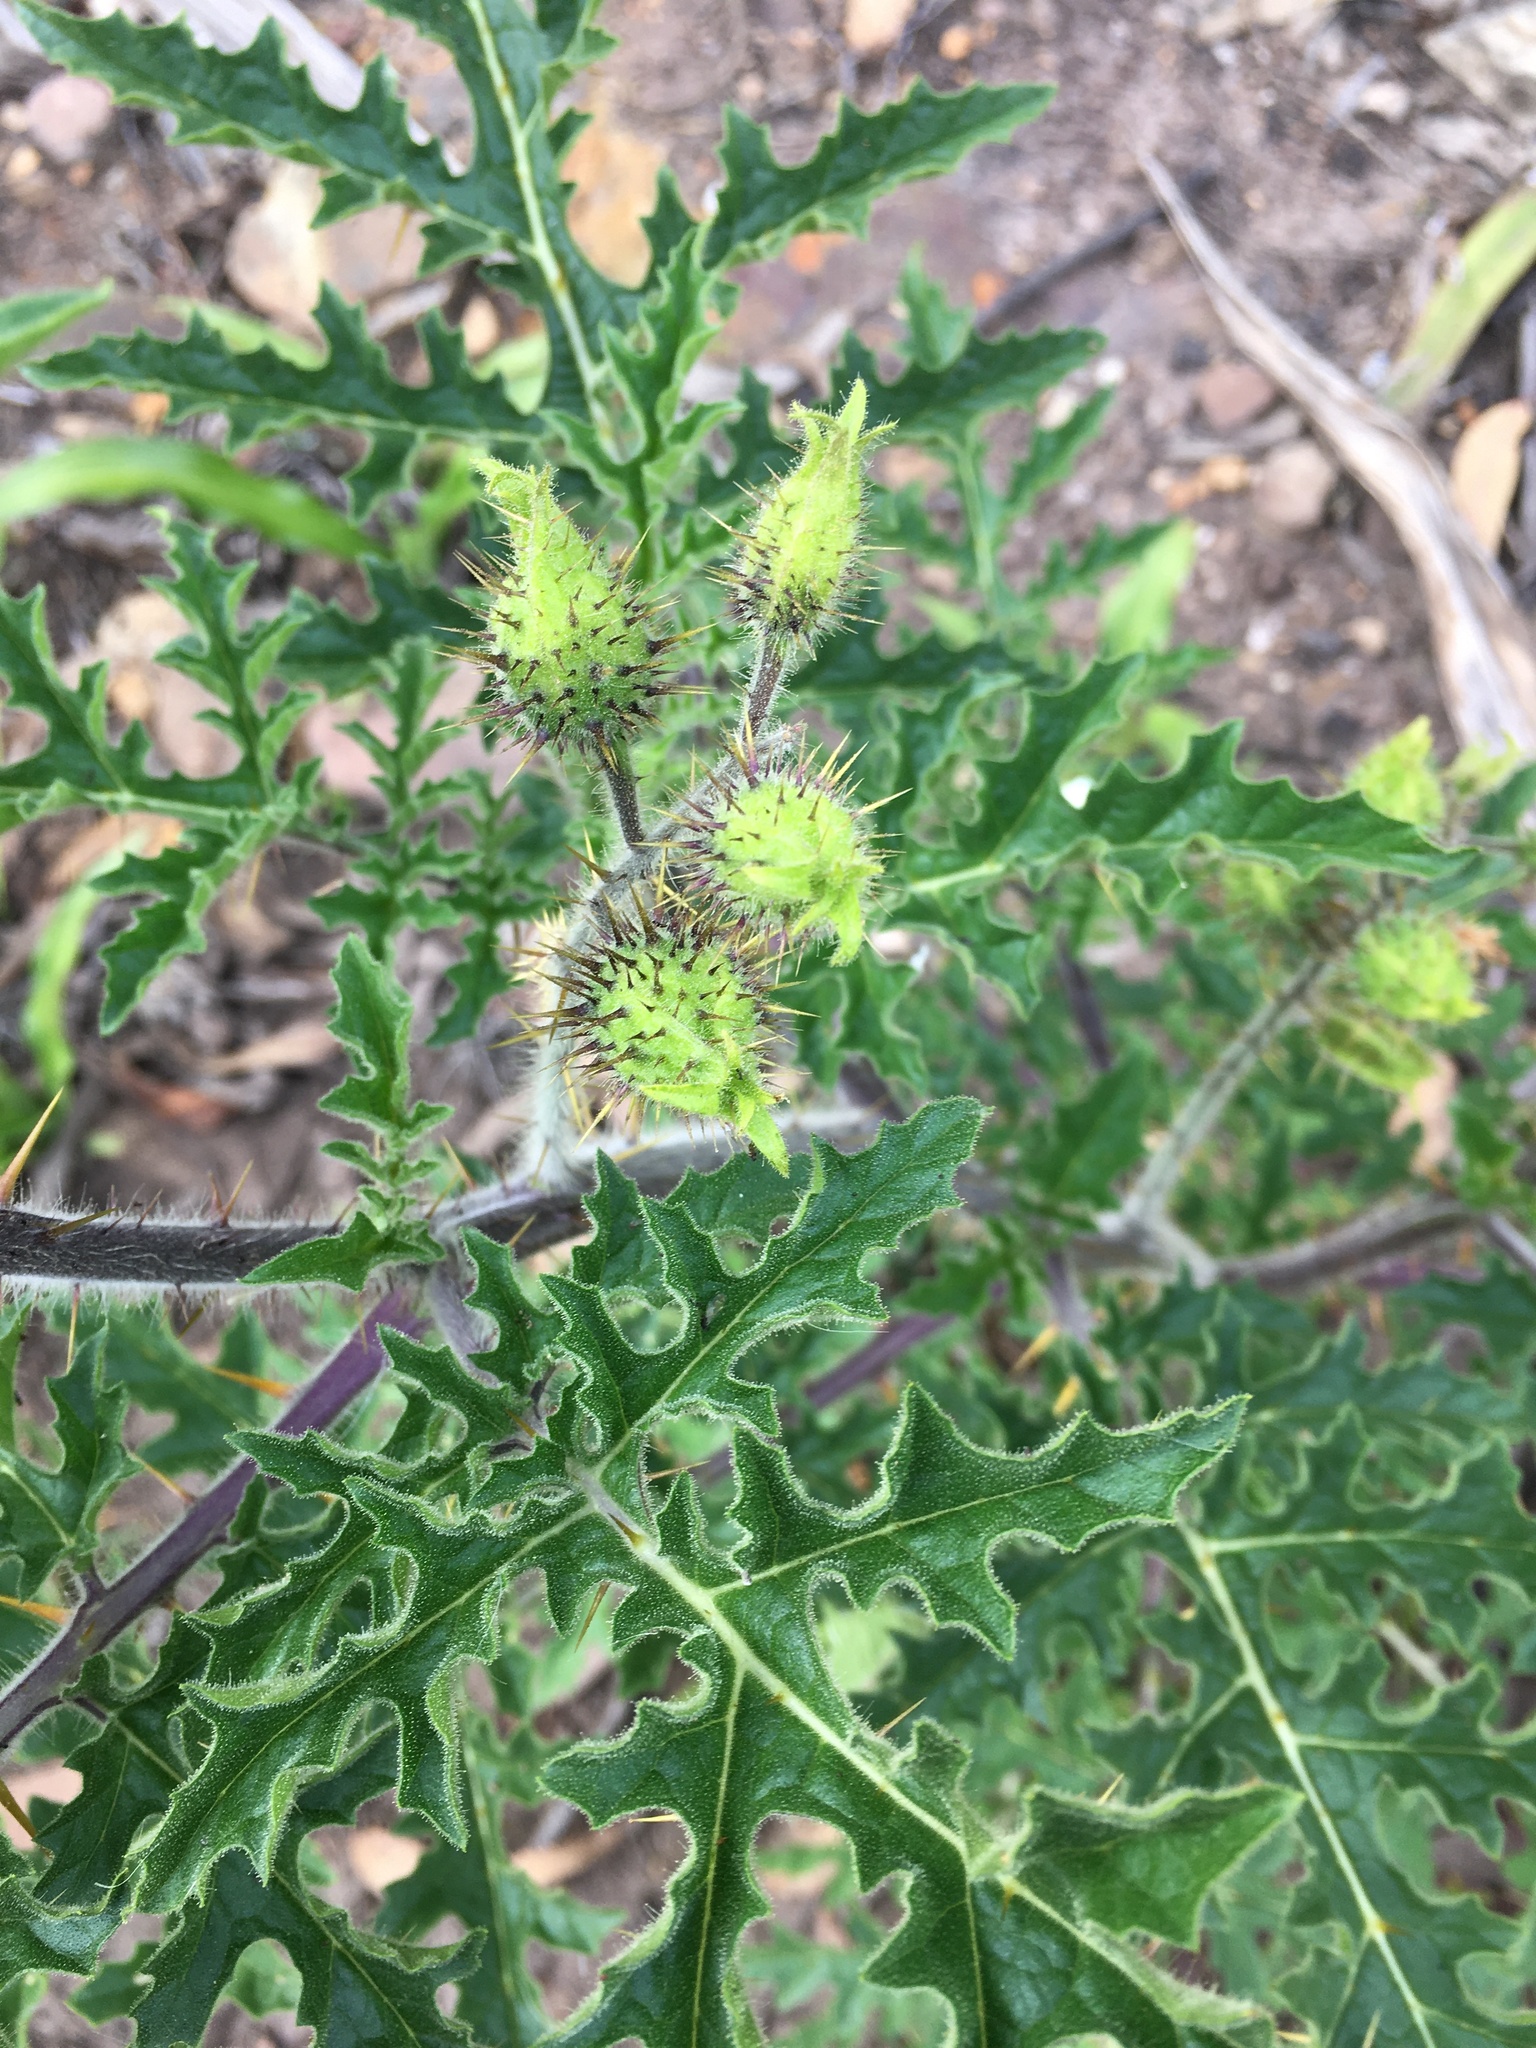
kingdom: Plantae
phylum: Tracheophyta
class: Magnoliopsida
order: Solanales
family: Solanaceae
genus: Solanum
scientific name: Solanum sisymbriifolium
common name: Red buffalo-bur
